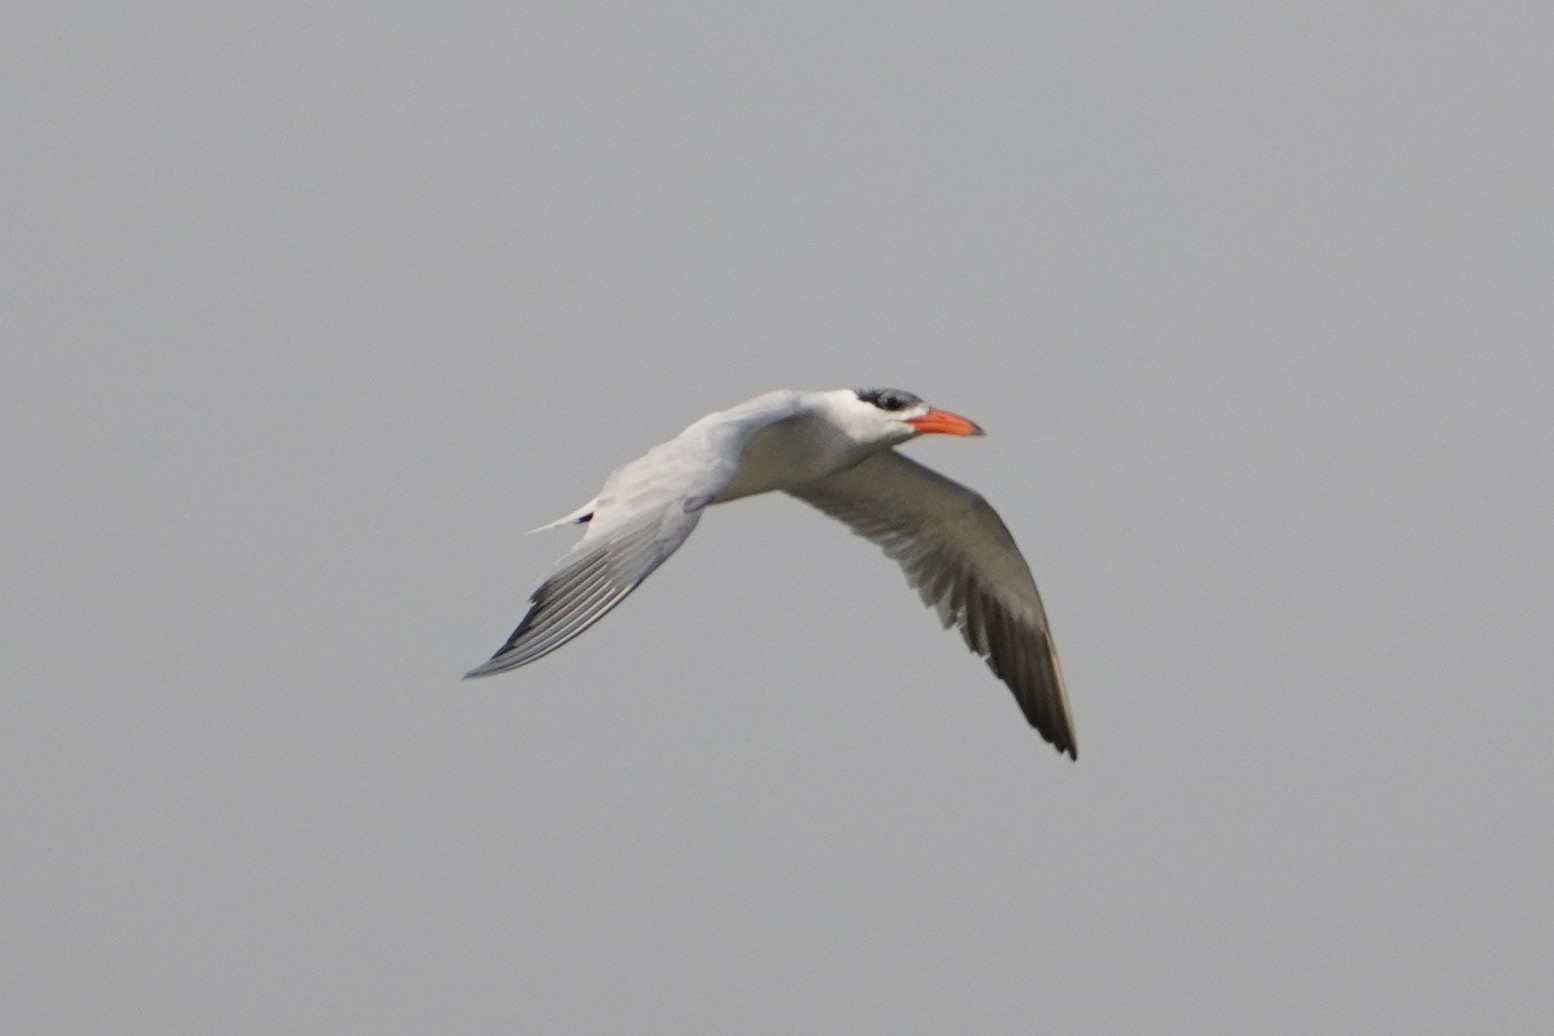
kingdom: Animalia
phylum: Chordata
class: Aves
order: Charadriiformes
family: Laridae
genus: Hydroprogne
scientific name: Hydroprogne caspia
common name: Caspian tern
